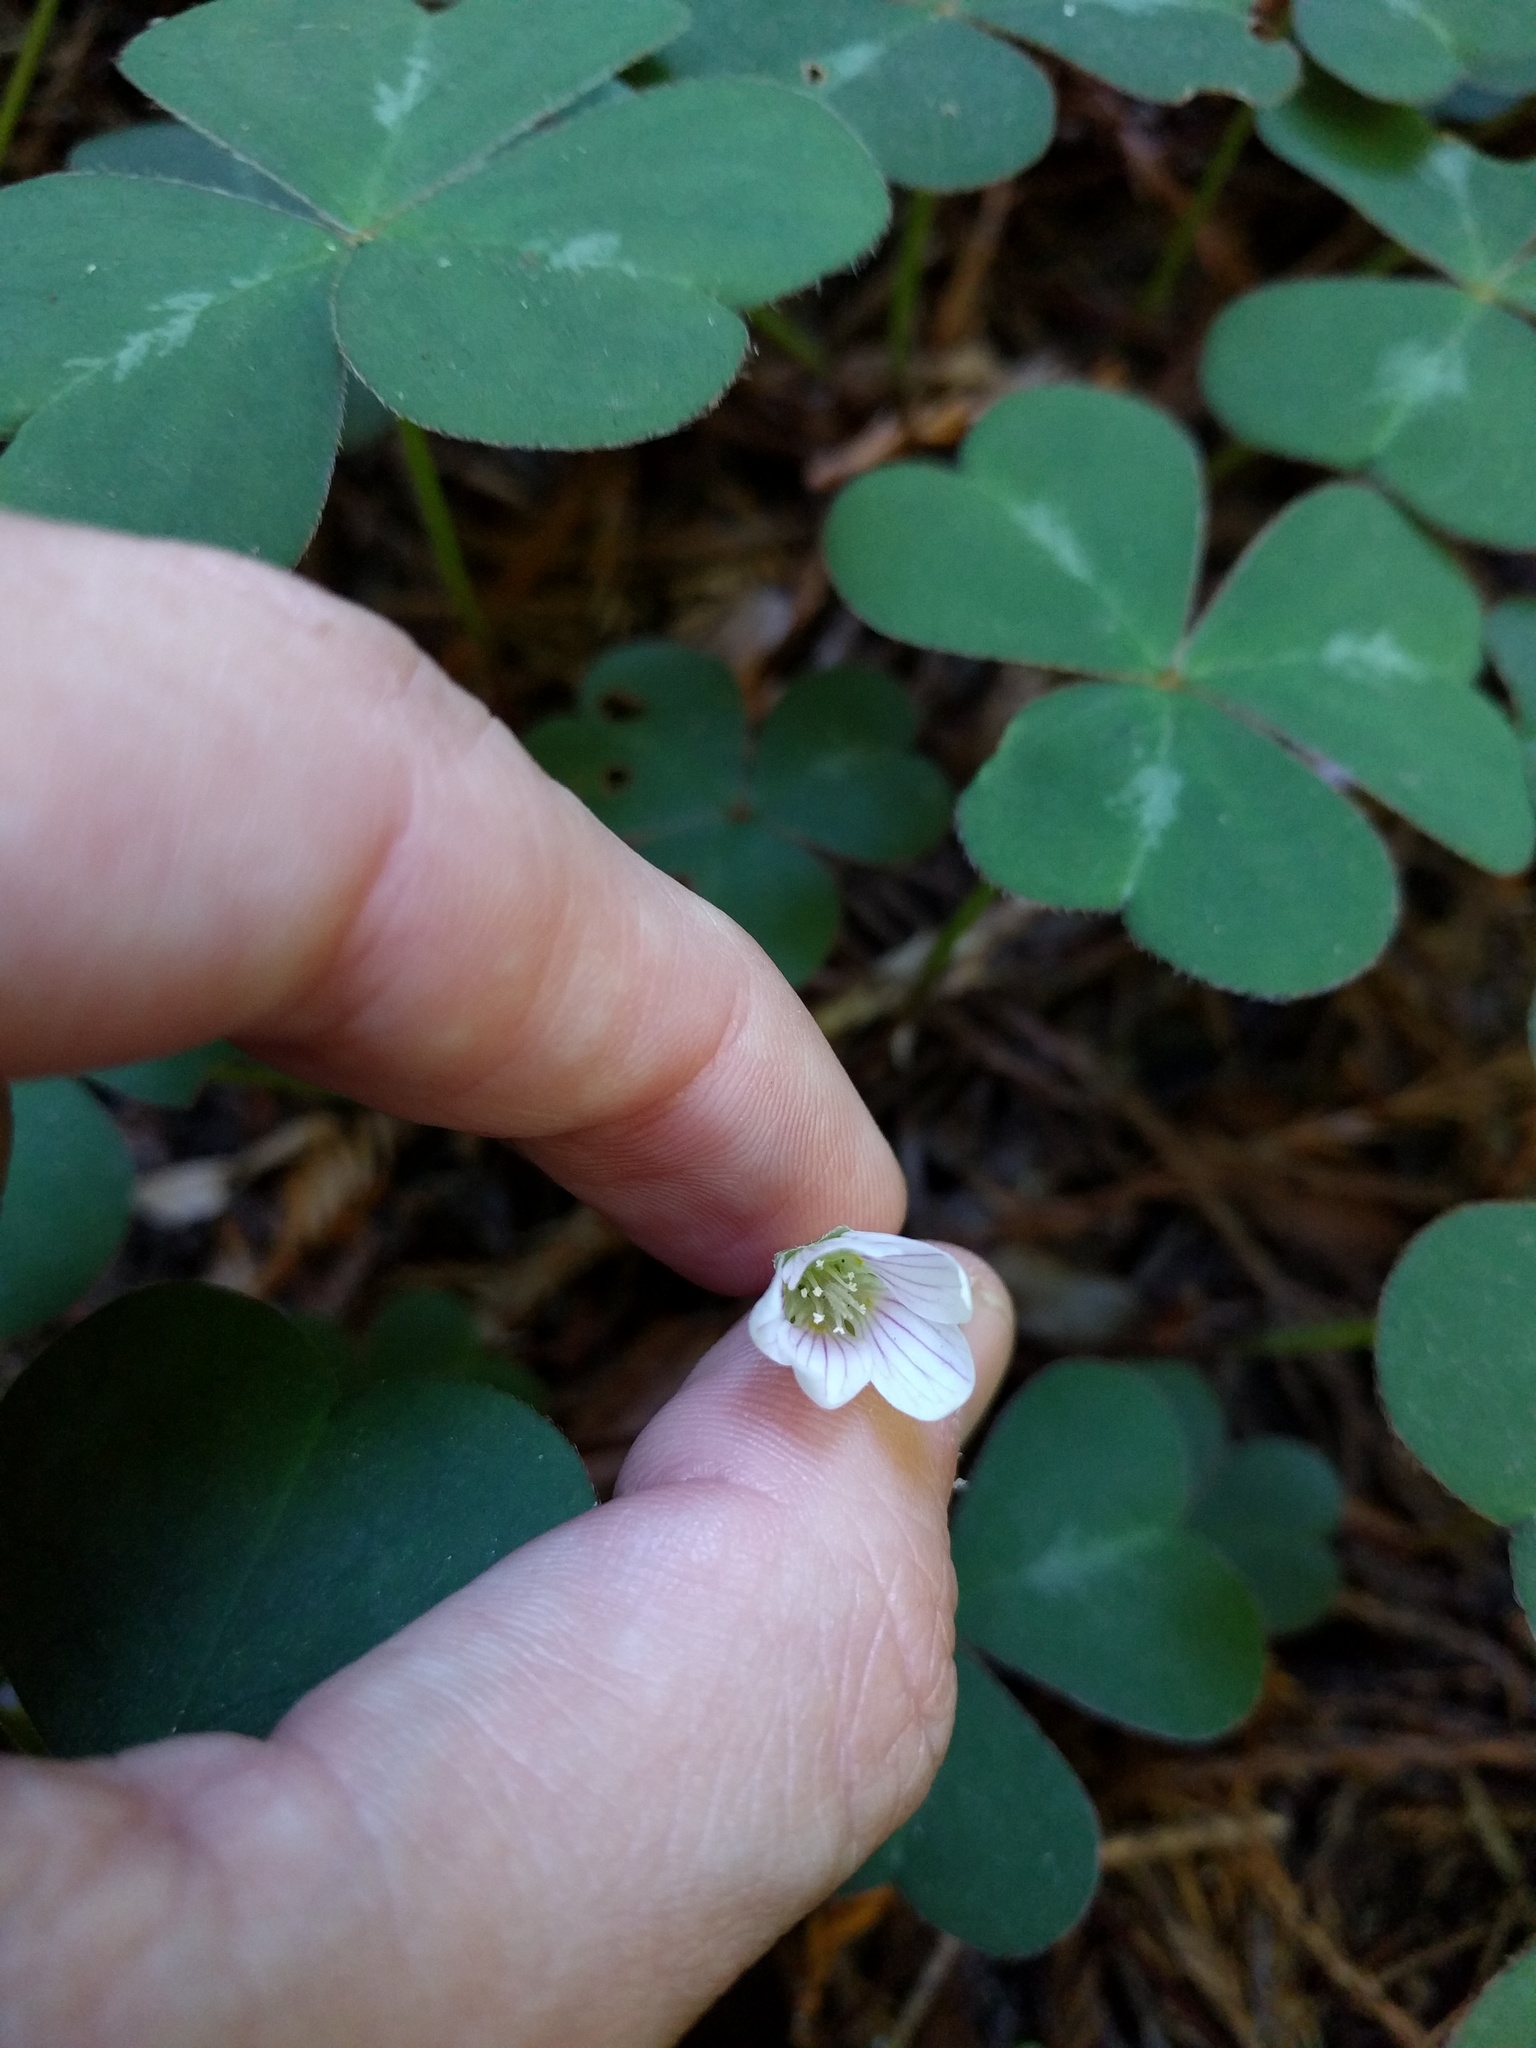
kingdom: Plantae
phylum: Tracheophyta
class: Magnoliopsida
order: Oxalidales
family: Oxalidaceae
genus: Oxalis
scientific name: Oxalis oregana
